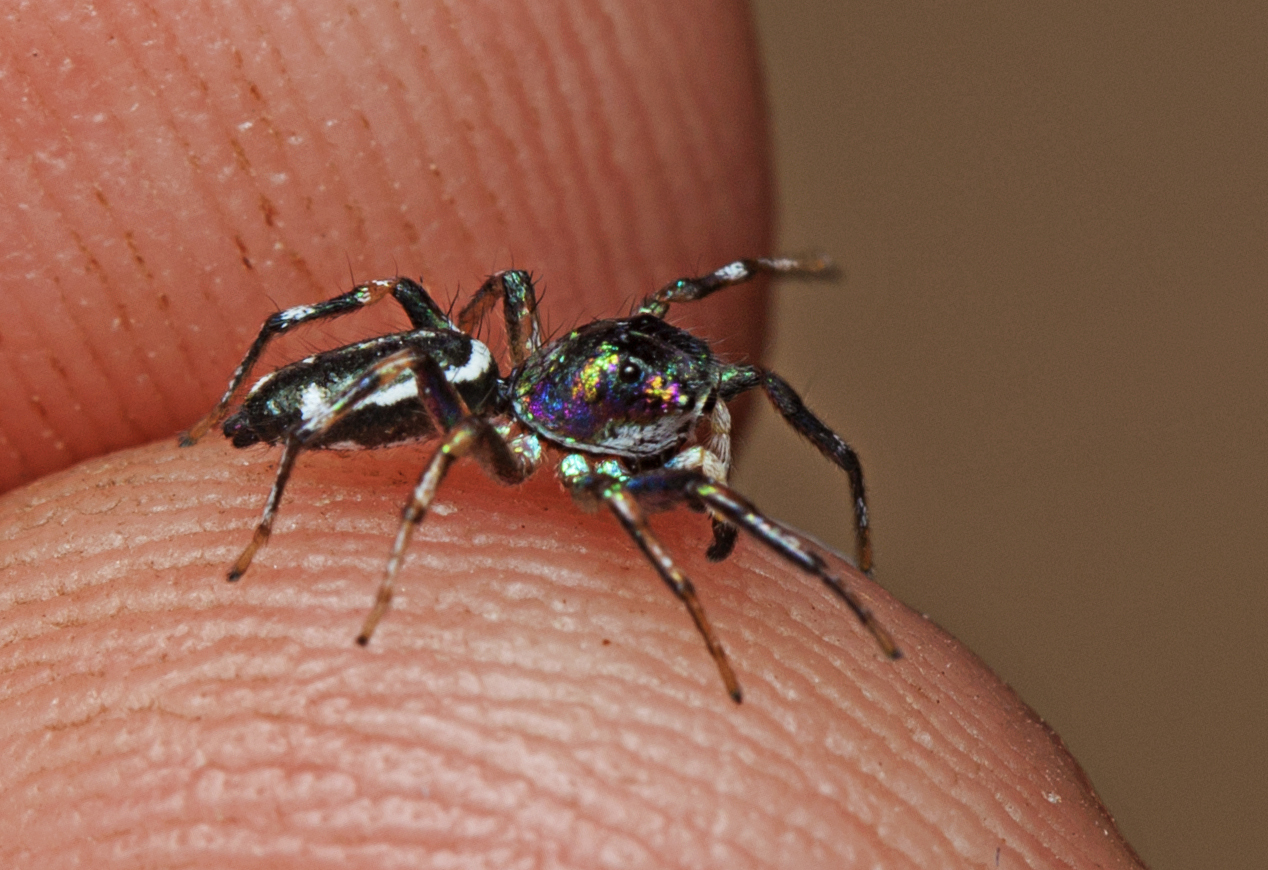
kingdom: Animalia
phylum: Arthropoda
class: Arachnida
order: Araneae
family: Salticidae
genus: Cosmophasis
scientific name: Cosmophasis thalassina
